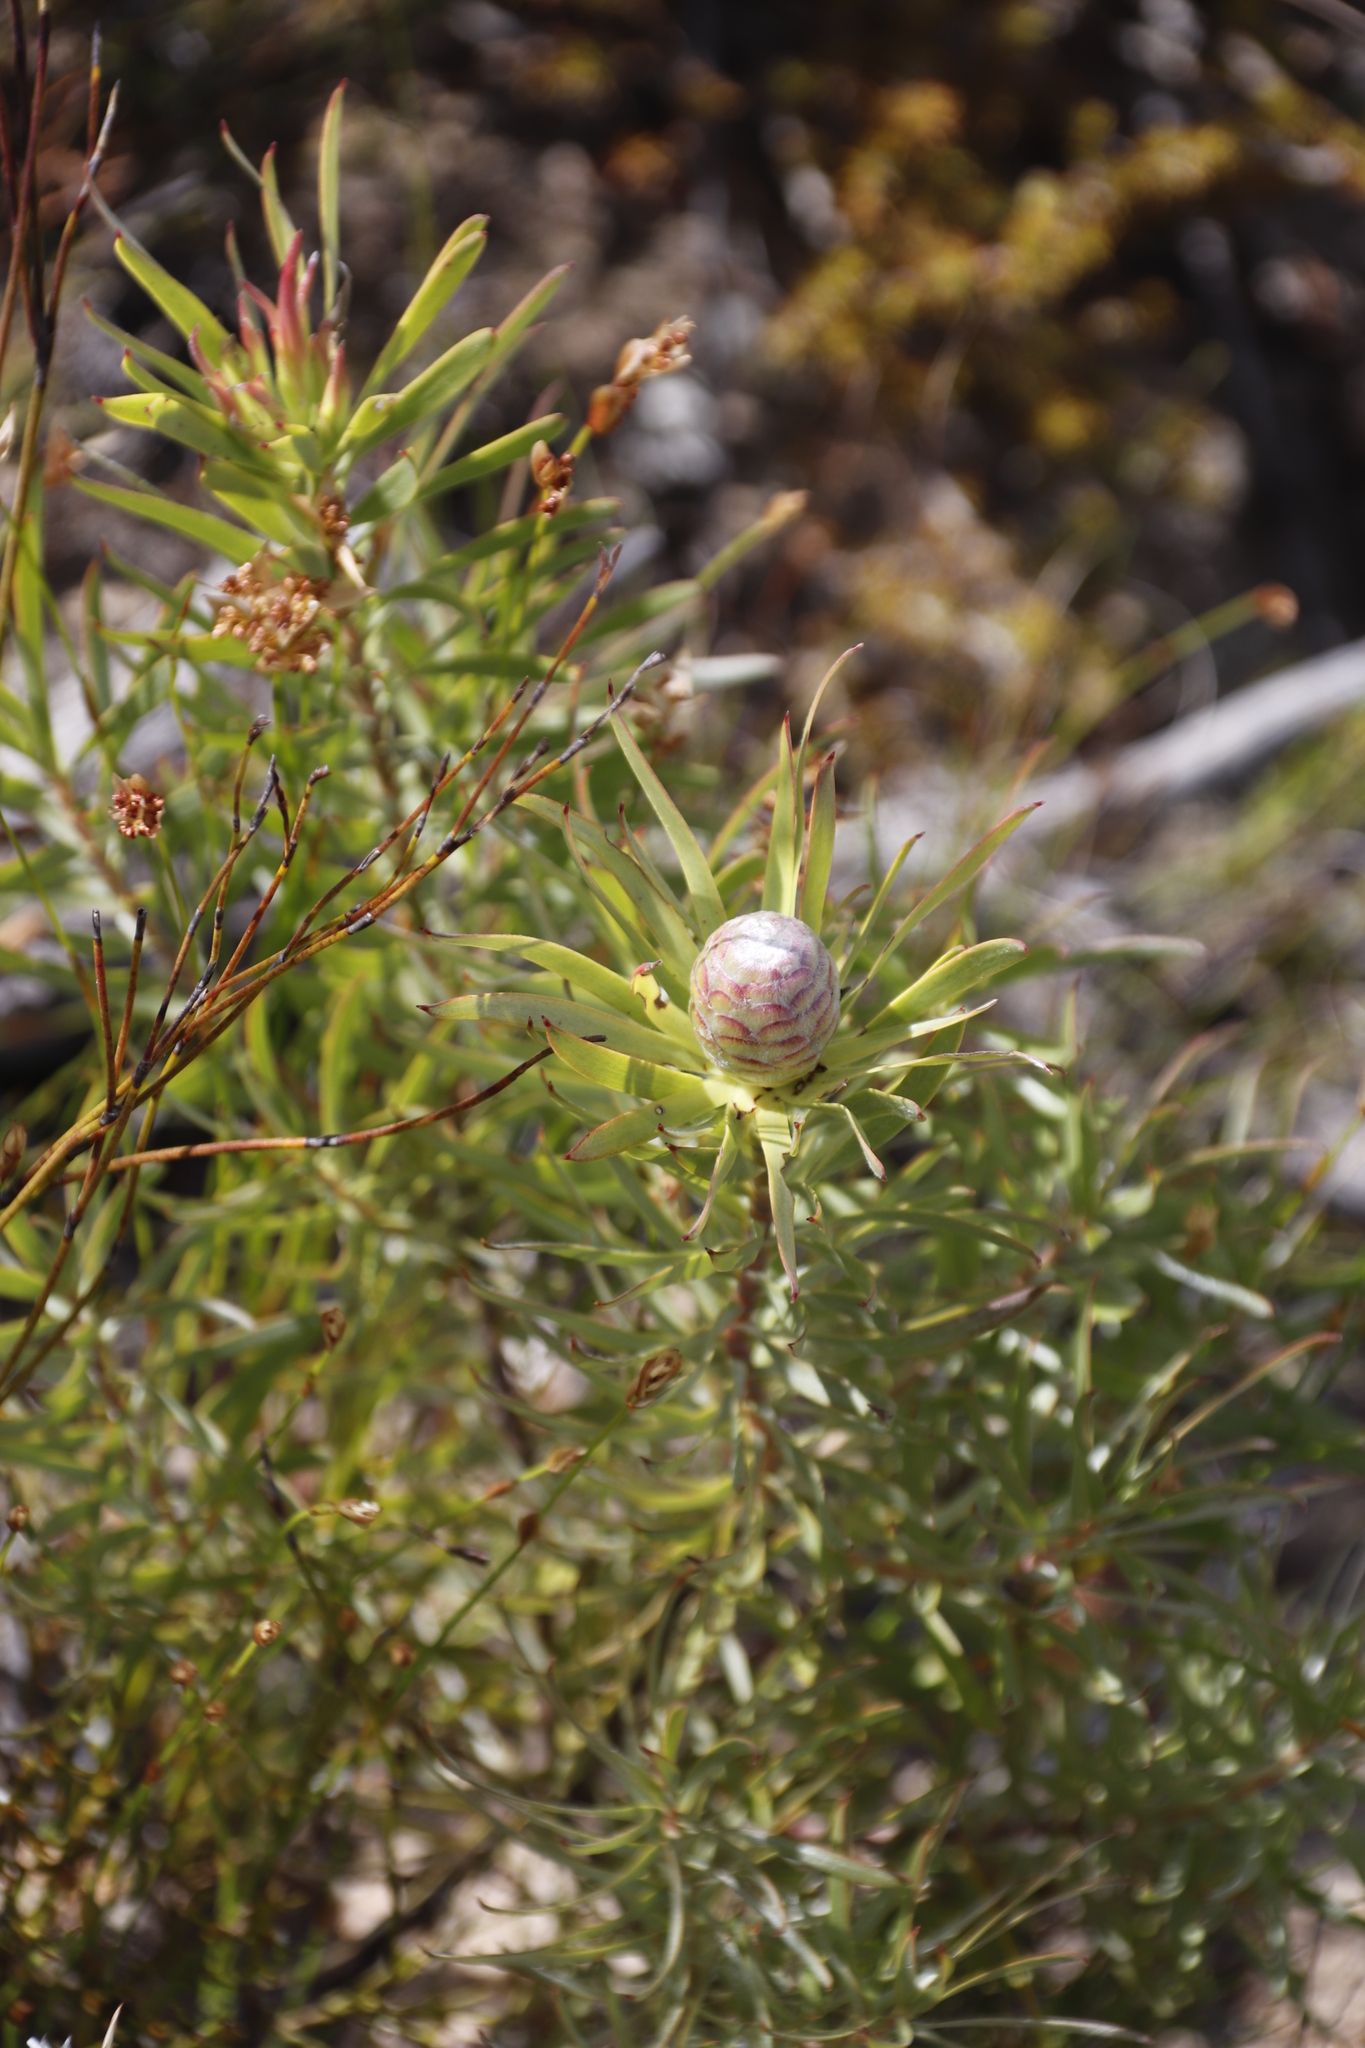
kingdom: Plantae
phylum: Tracheophyta
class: Magnoliopsida
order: Proteales
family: Proteaceae
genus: Leucadendron
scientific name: Leucadendron xanthoconus
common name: Sickle-leaf conebush
